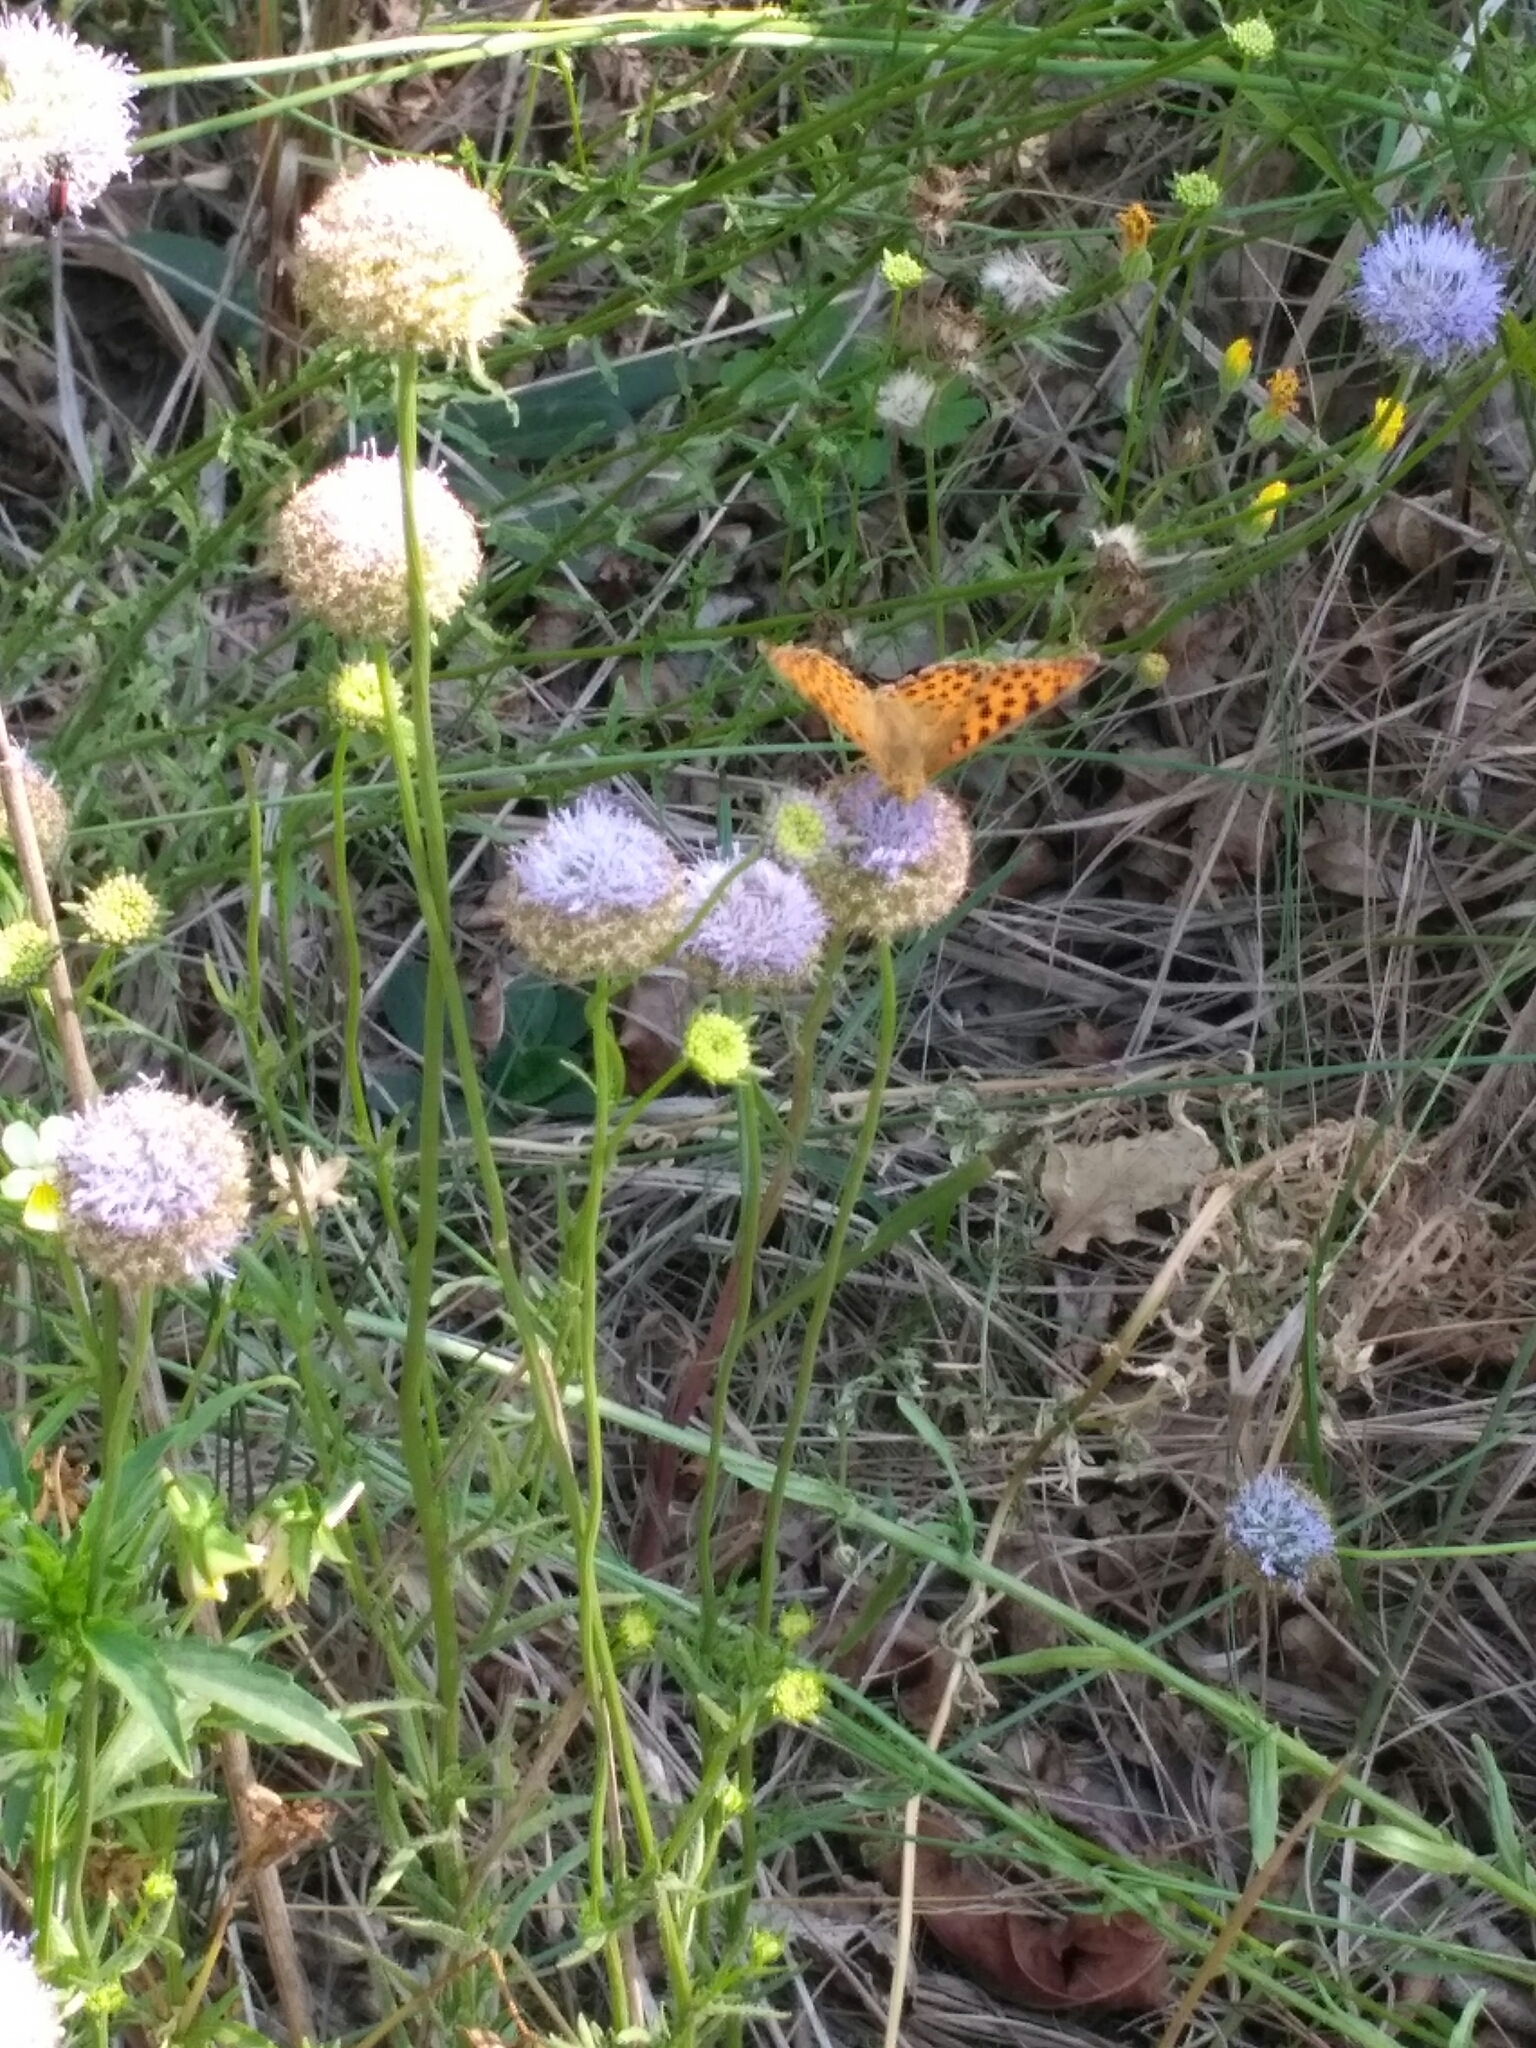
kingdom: Animalia
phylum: Arthropoda
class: Insecta
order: Lepidoptera
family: Nymphalidae
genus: Issoria
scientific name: Issoria lathonia
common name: Queen of spain fritillary
